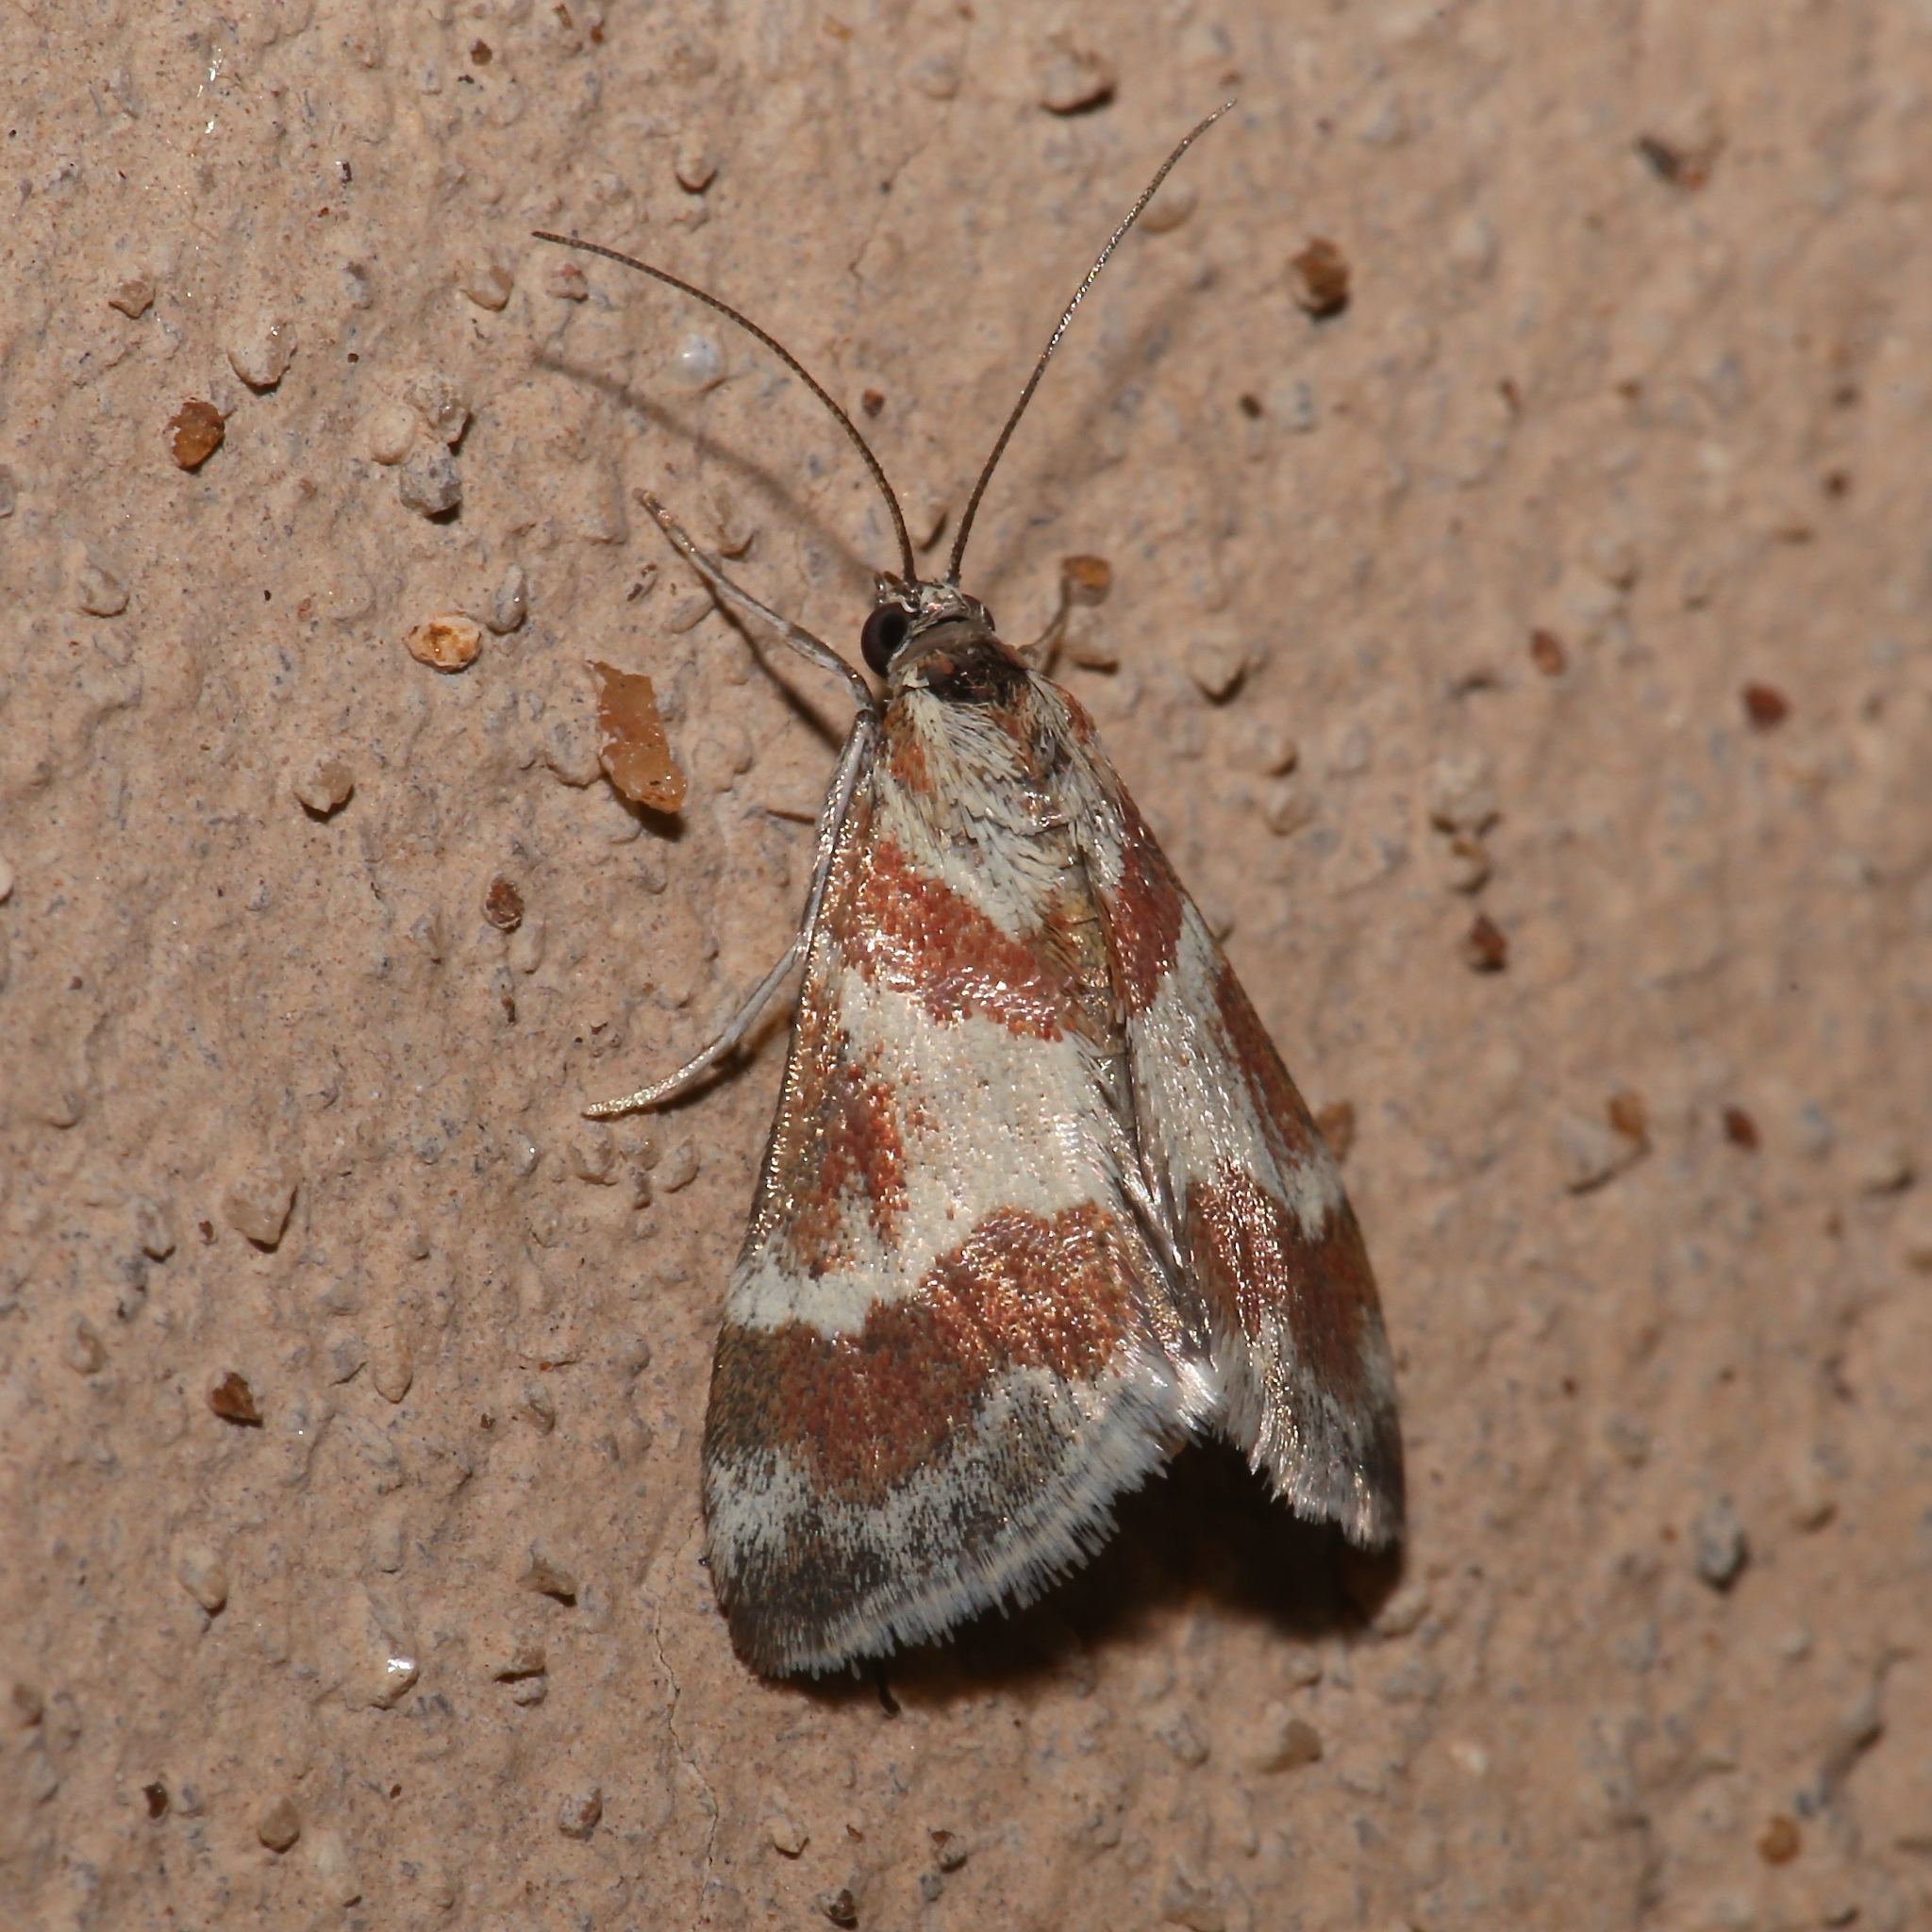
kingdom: Animalia
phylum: Arthropoda
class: Insecta
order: Lepidoptera
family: Crambidae
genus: Noctuelia
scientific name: Noctuelia Mimoschinia rufofascialis
